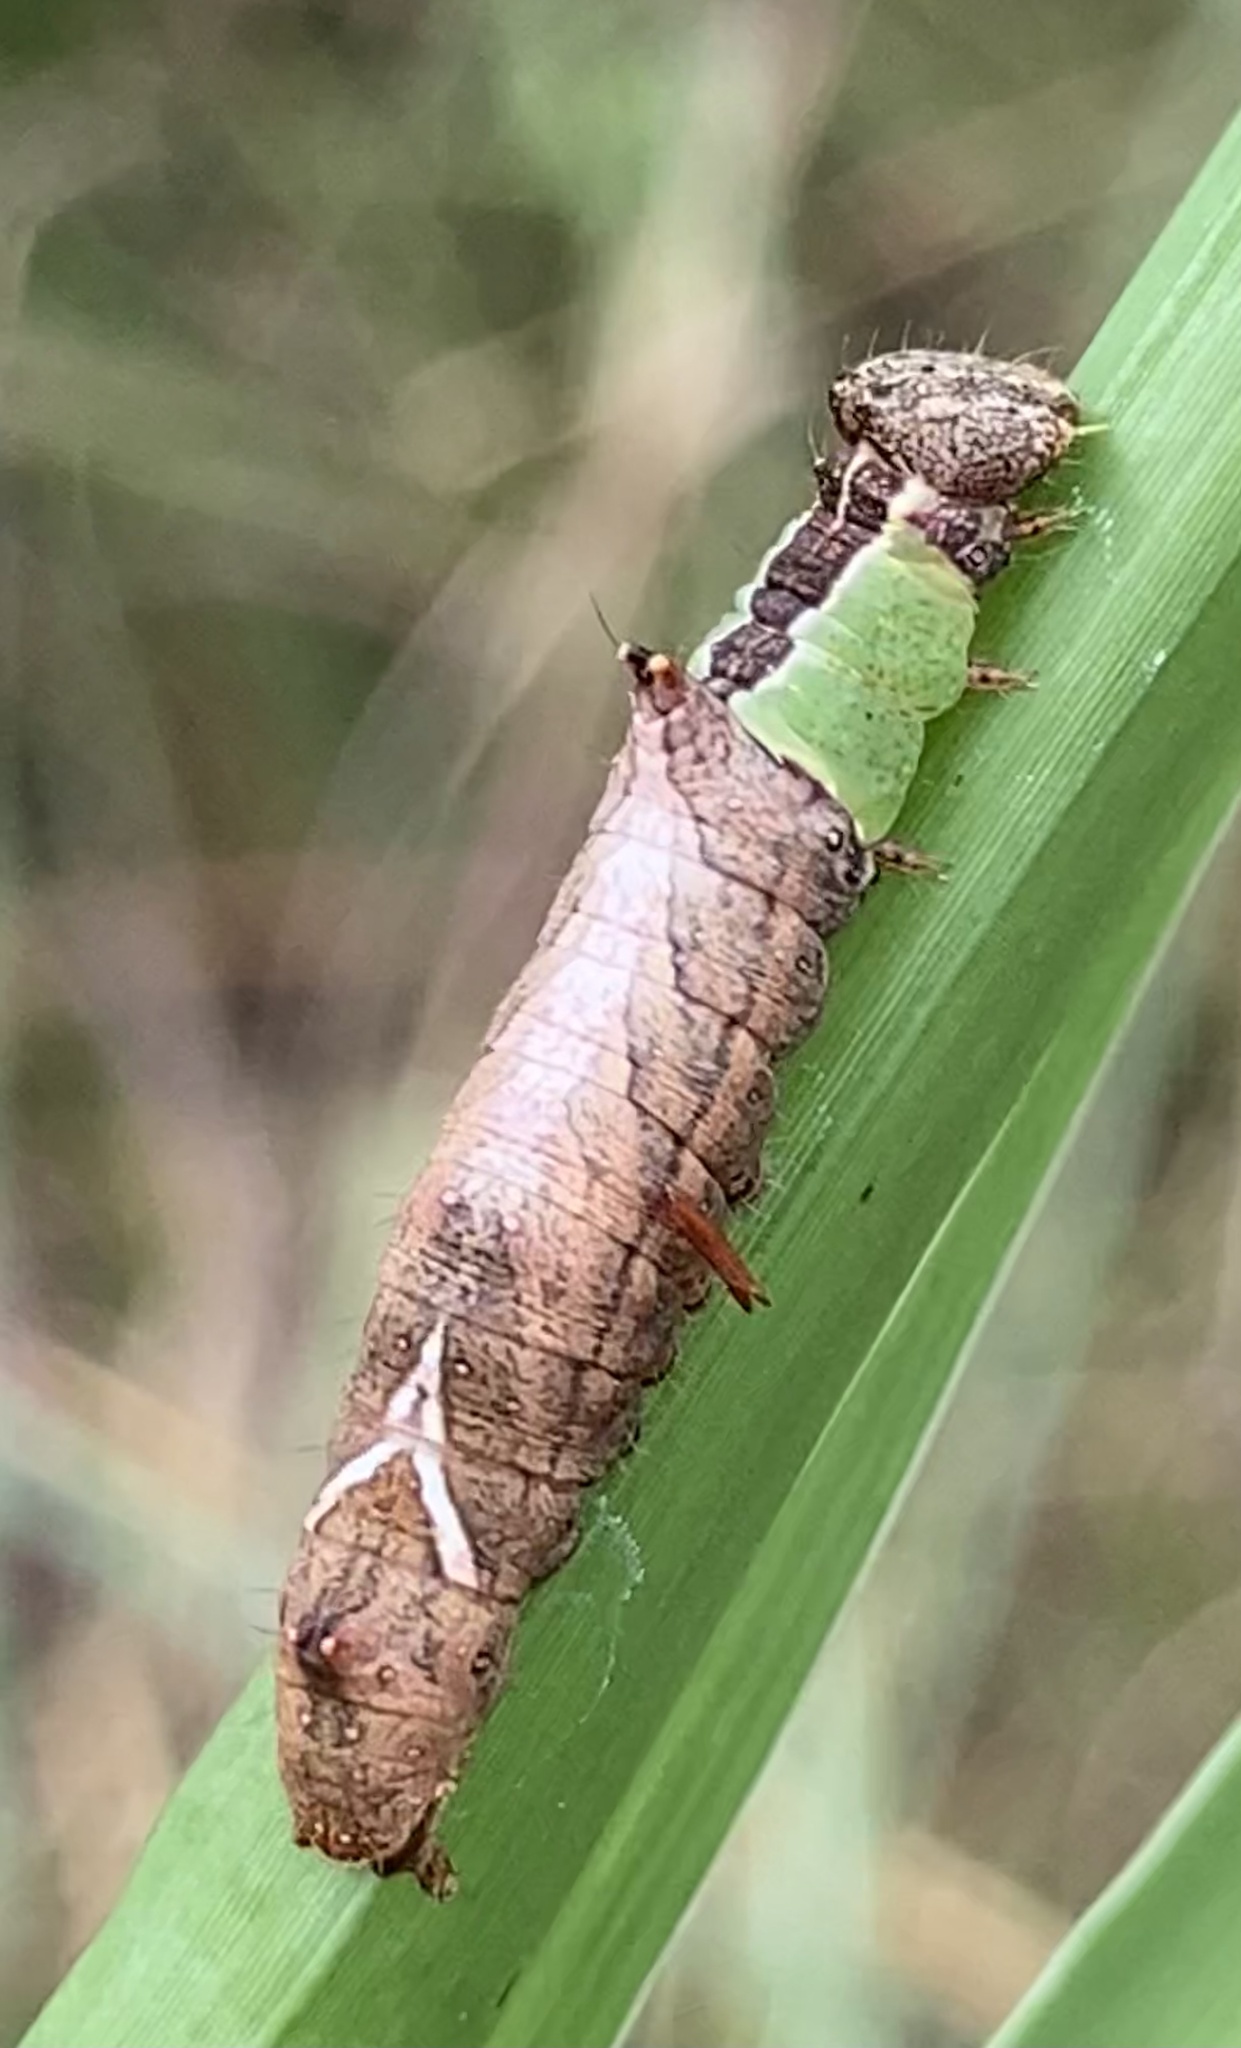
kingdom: Animalia
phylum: Arthropoda
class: Insecta
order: Lepidoptera
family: Notodontidae
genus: Schizura
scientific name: Schizura
